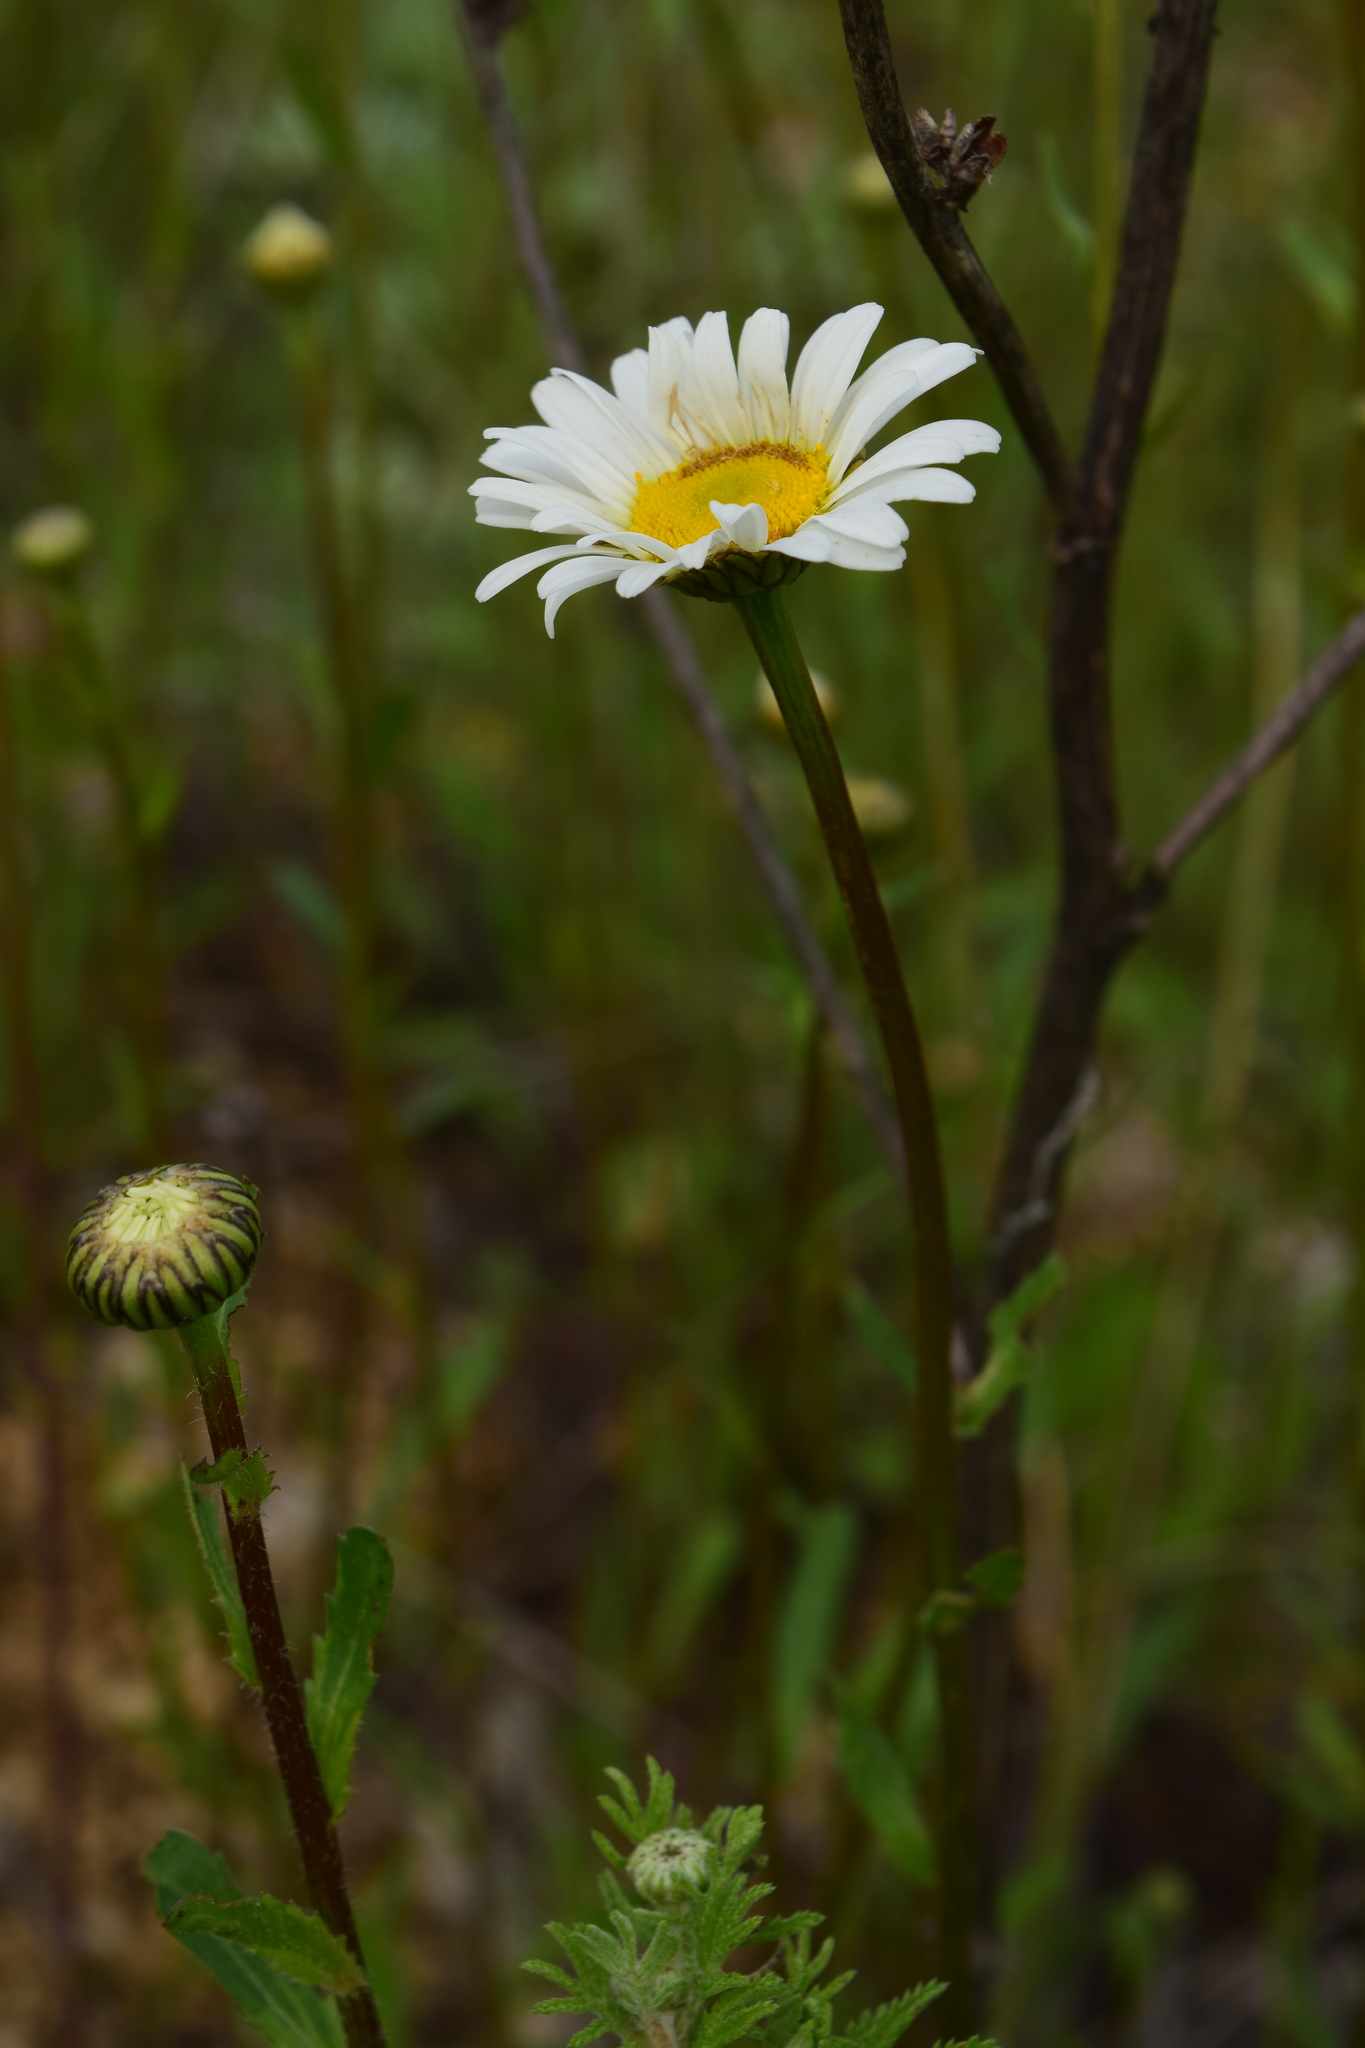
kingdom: Plantae
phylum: Tracheophyta
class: Magnoliopsida
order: Asterales
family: Asteraceae
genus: Leucanthemum
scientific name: Leucanthemum vulgare
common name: Oxeye daisy
